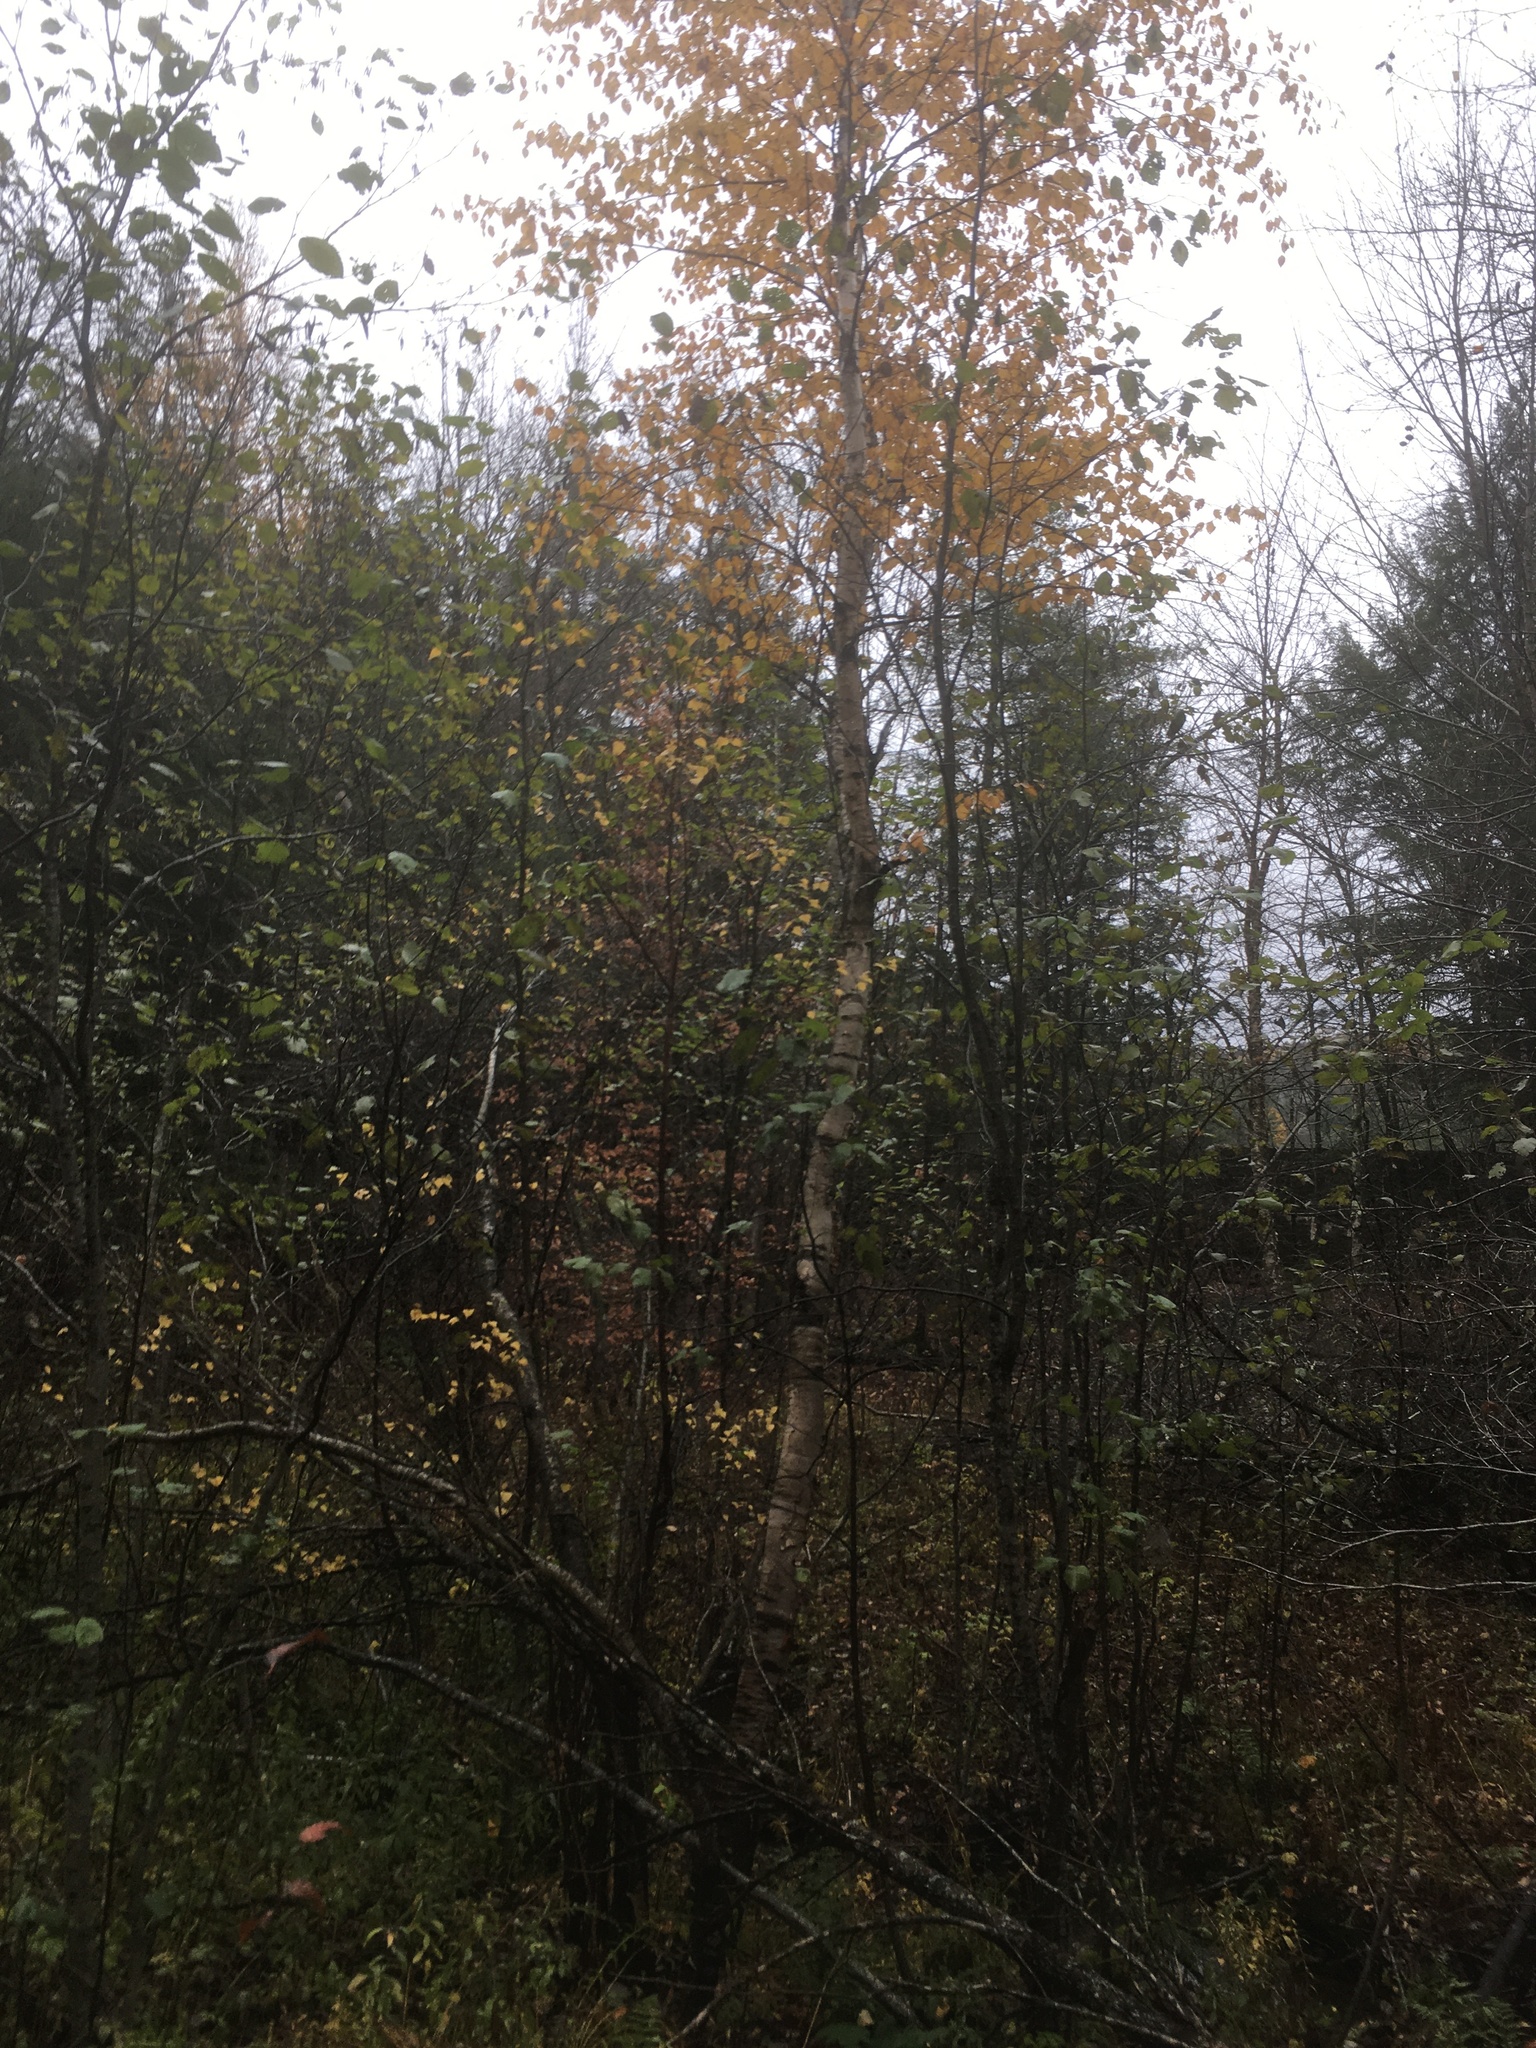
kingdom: Plantae
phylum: Tracheophyta
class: Magnoliopsida
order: Fagales
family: Betulaceae
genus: Betula
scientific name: Betula papyrifera
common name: Paper birch
